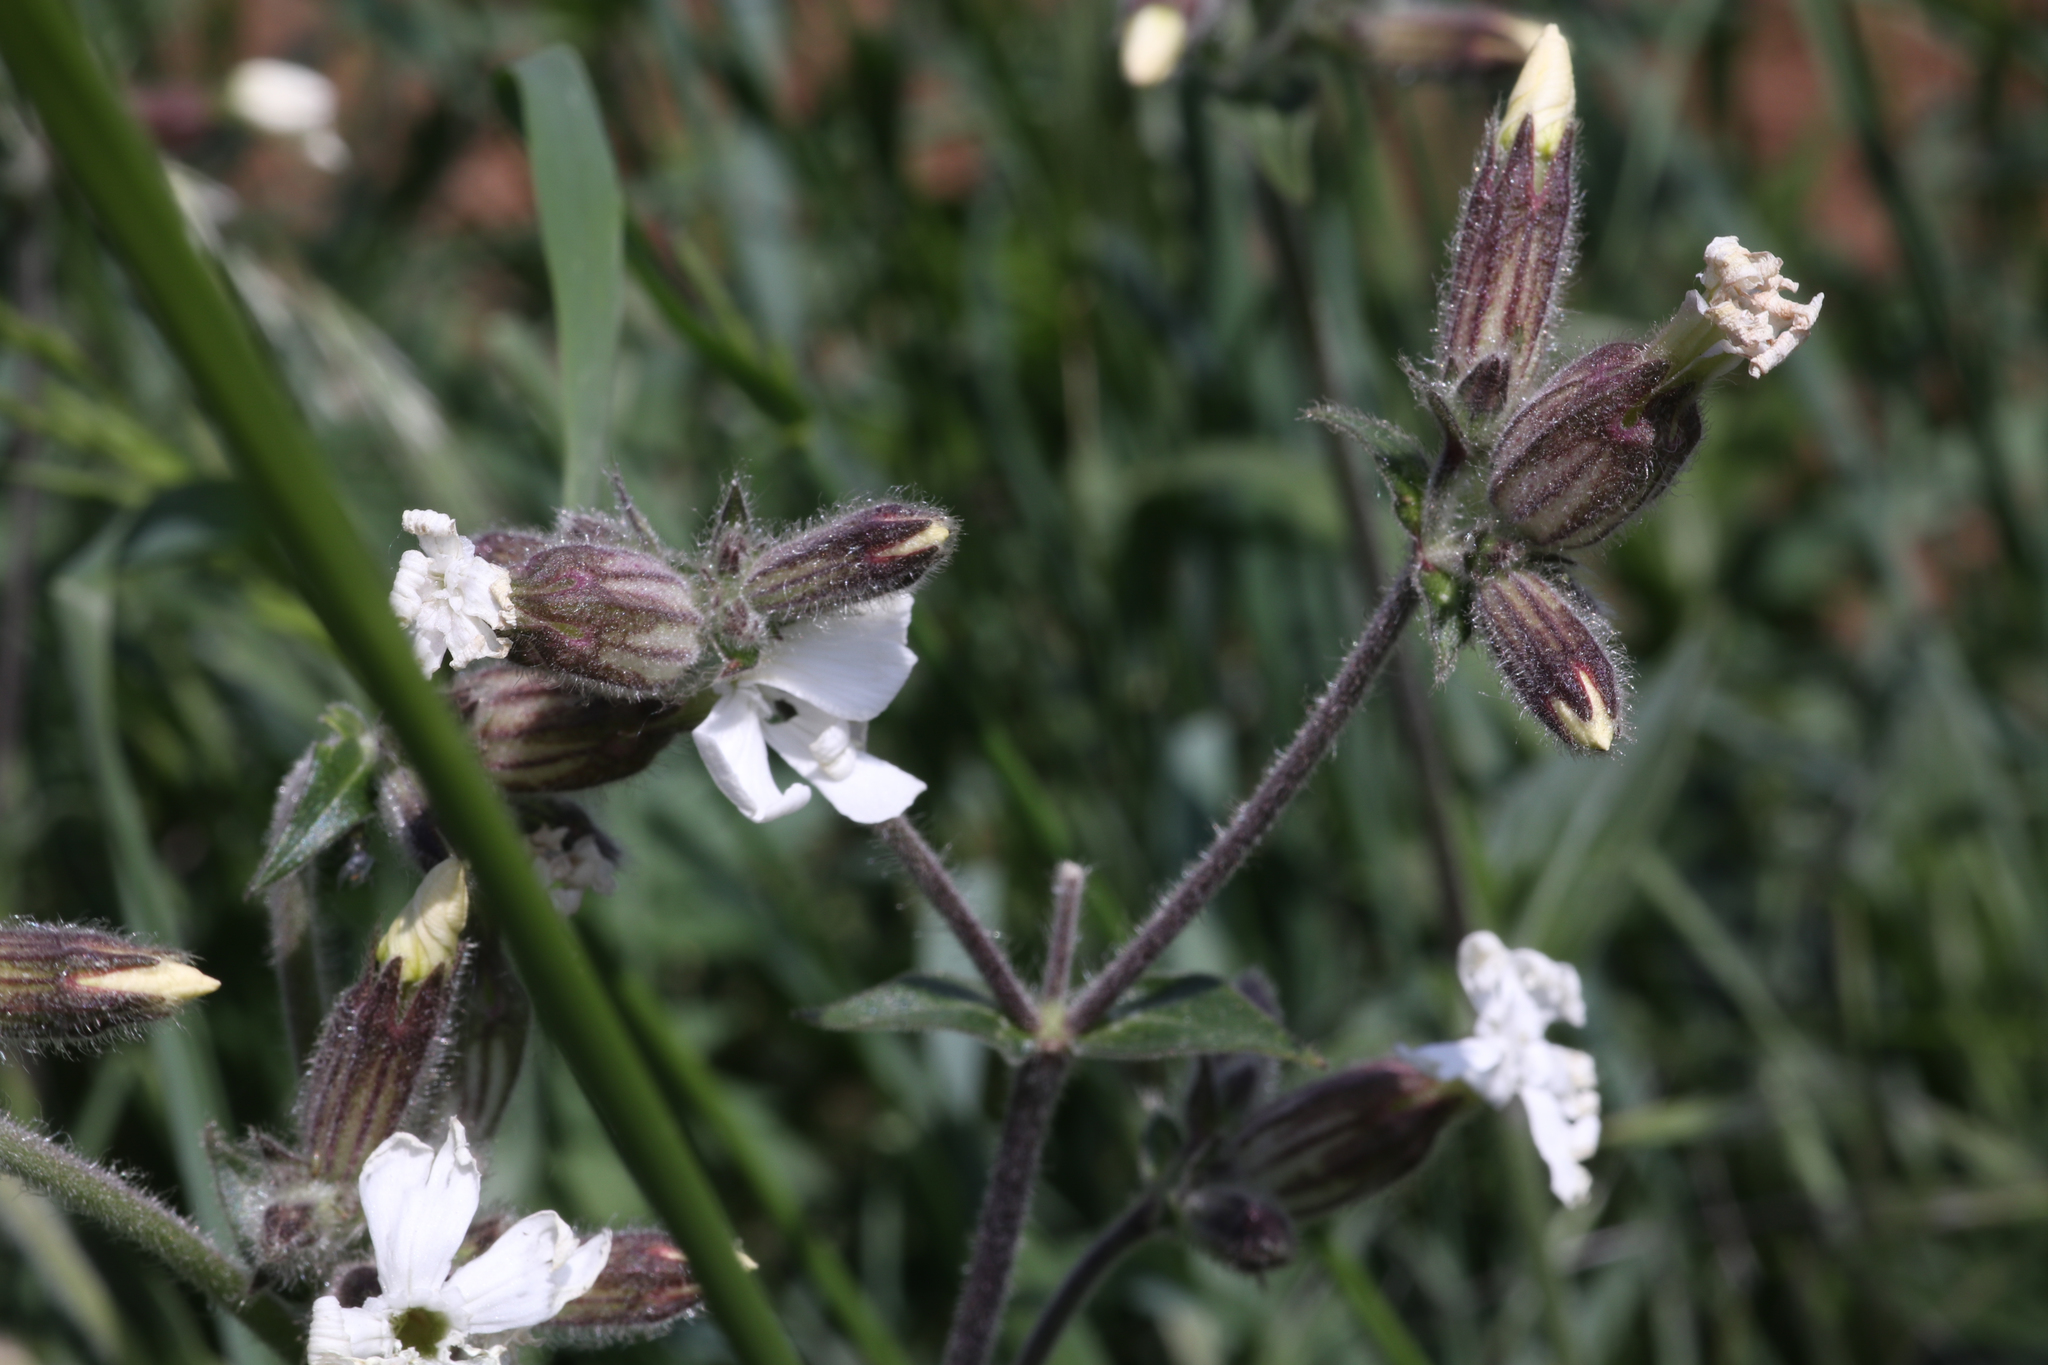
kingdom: Plantae
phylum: Tracheophyta
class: Magnoliopsida
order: Caryophyllales
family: Caryophyllaceae
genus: Silene
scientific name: Silene latifolia
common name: White campion
